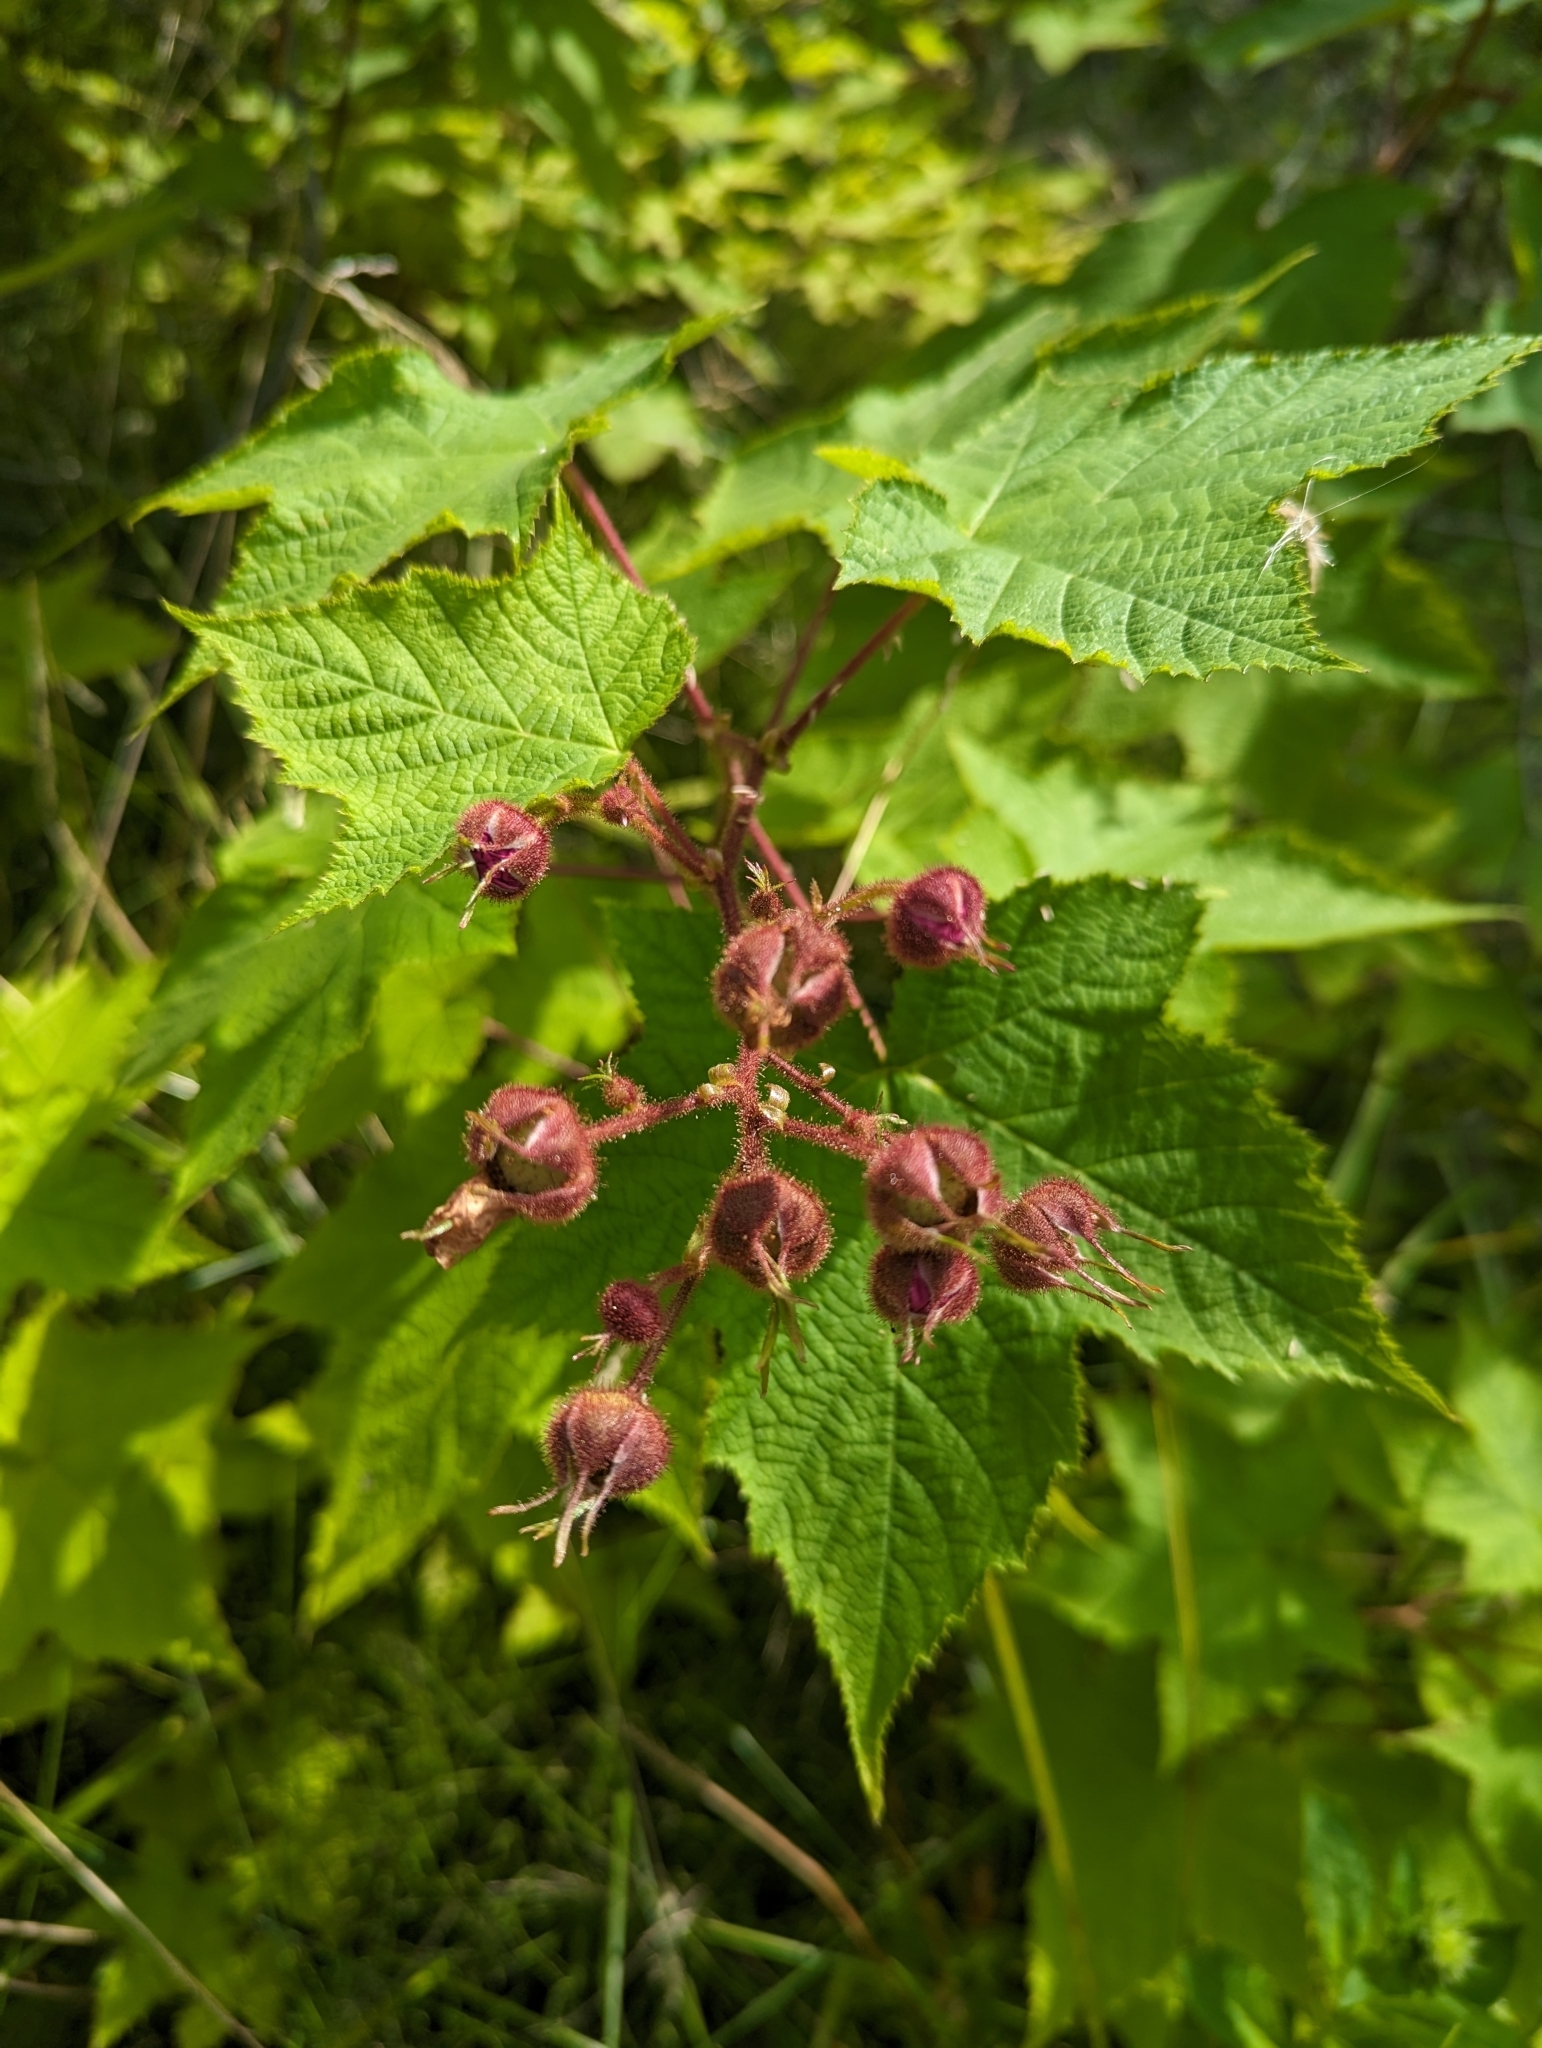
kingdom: Plantae
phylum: Tracheophyta
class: Magnoliopsida
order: Rosales
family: Rosaceae
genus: Rubus
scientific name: Rubus odoratus
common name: Purple-flowered raspberry
